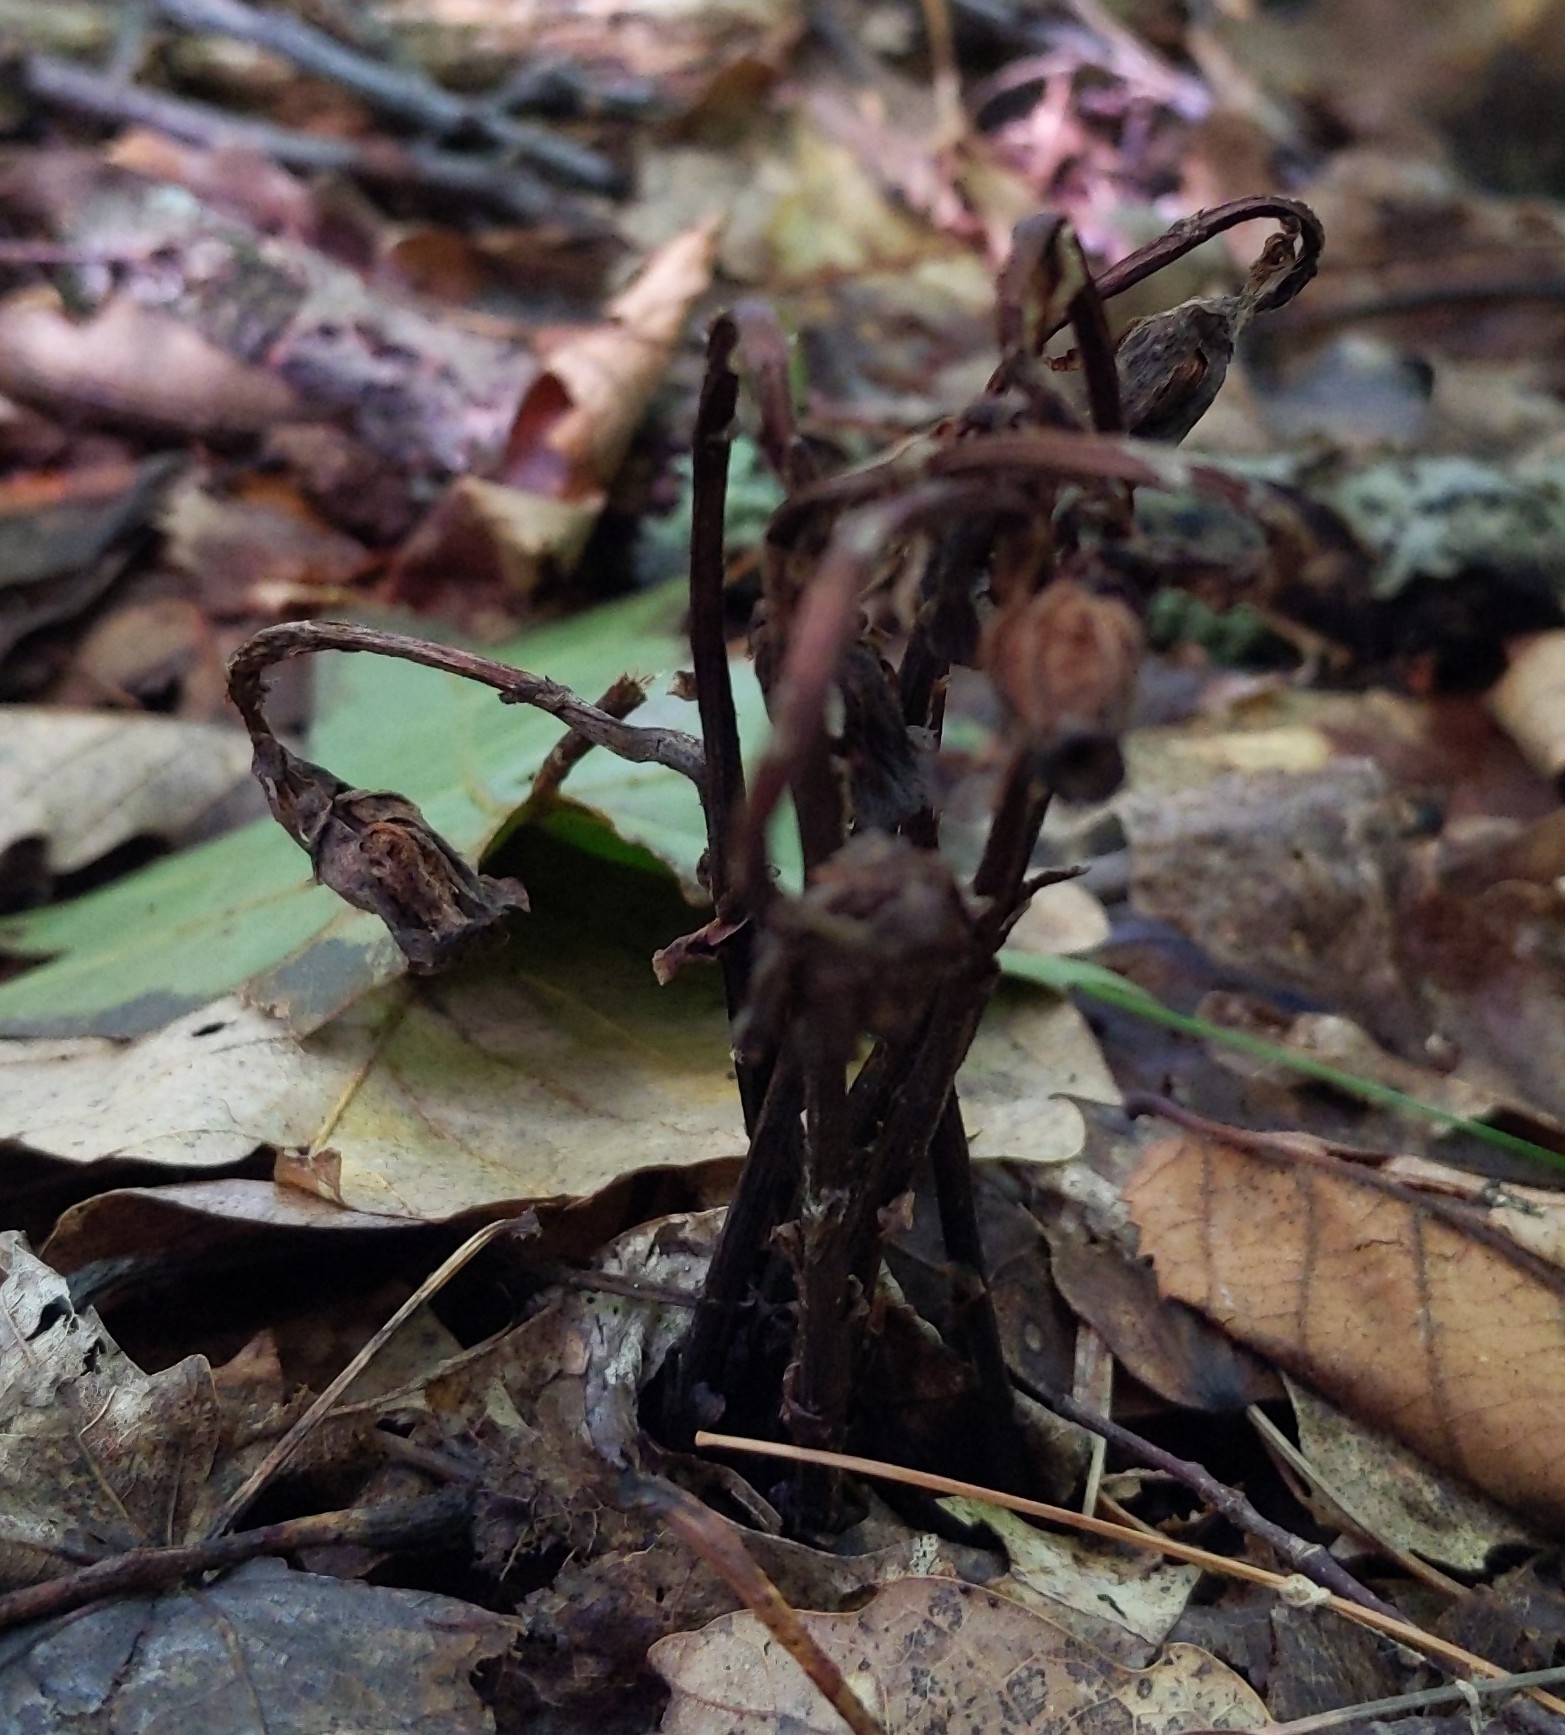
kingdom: Plantae
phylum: Tracheophyta
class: Magnoliopsida
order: Ericales
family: Ericaceae
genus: Monotropa
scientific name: Monotropa uniflora
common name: Convulsion root
